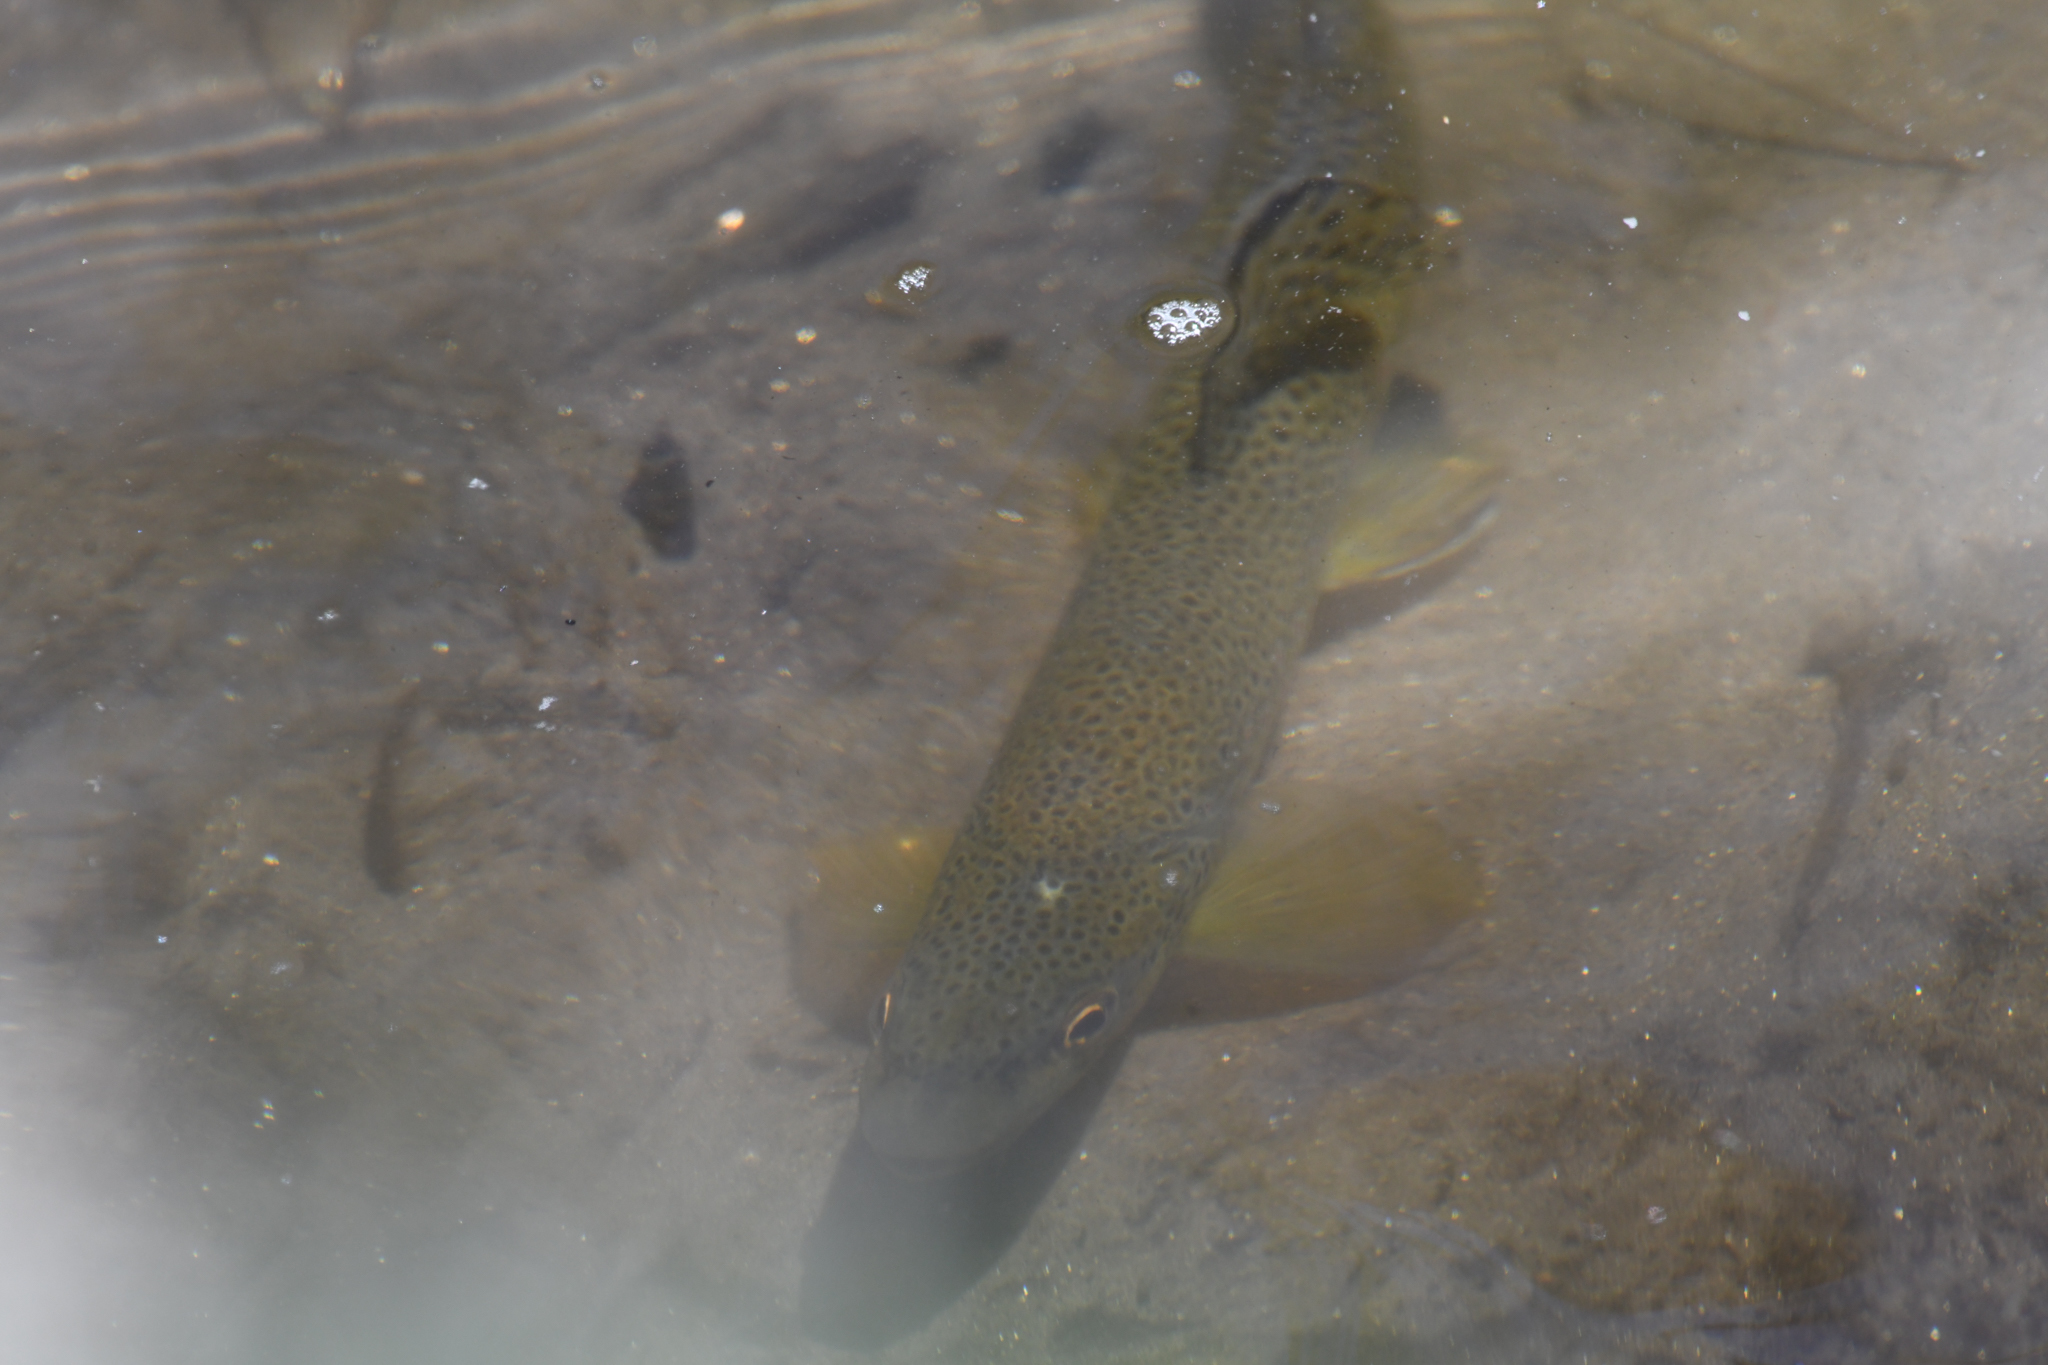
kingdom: Animalia
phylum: Chordata
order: Salmoniformes
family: Salmonidae
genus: Salmo
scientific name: Salmo trutta
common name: Brown trout
